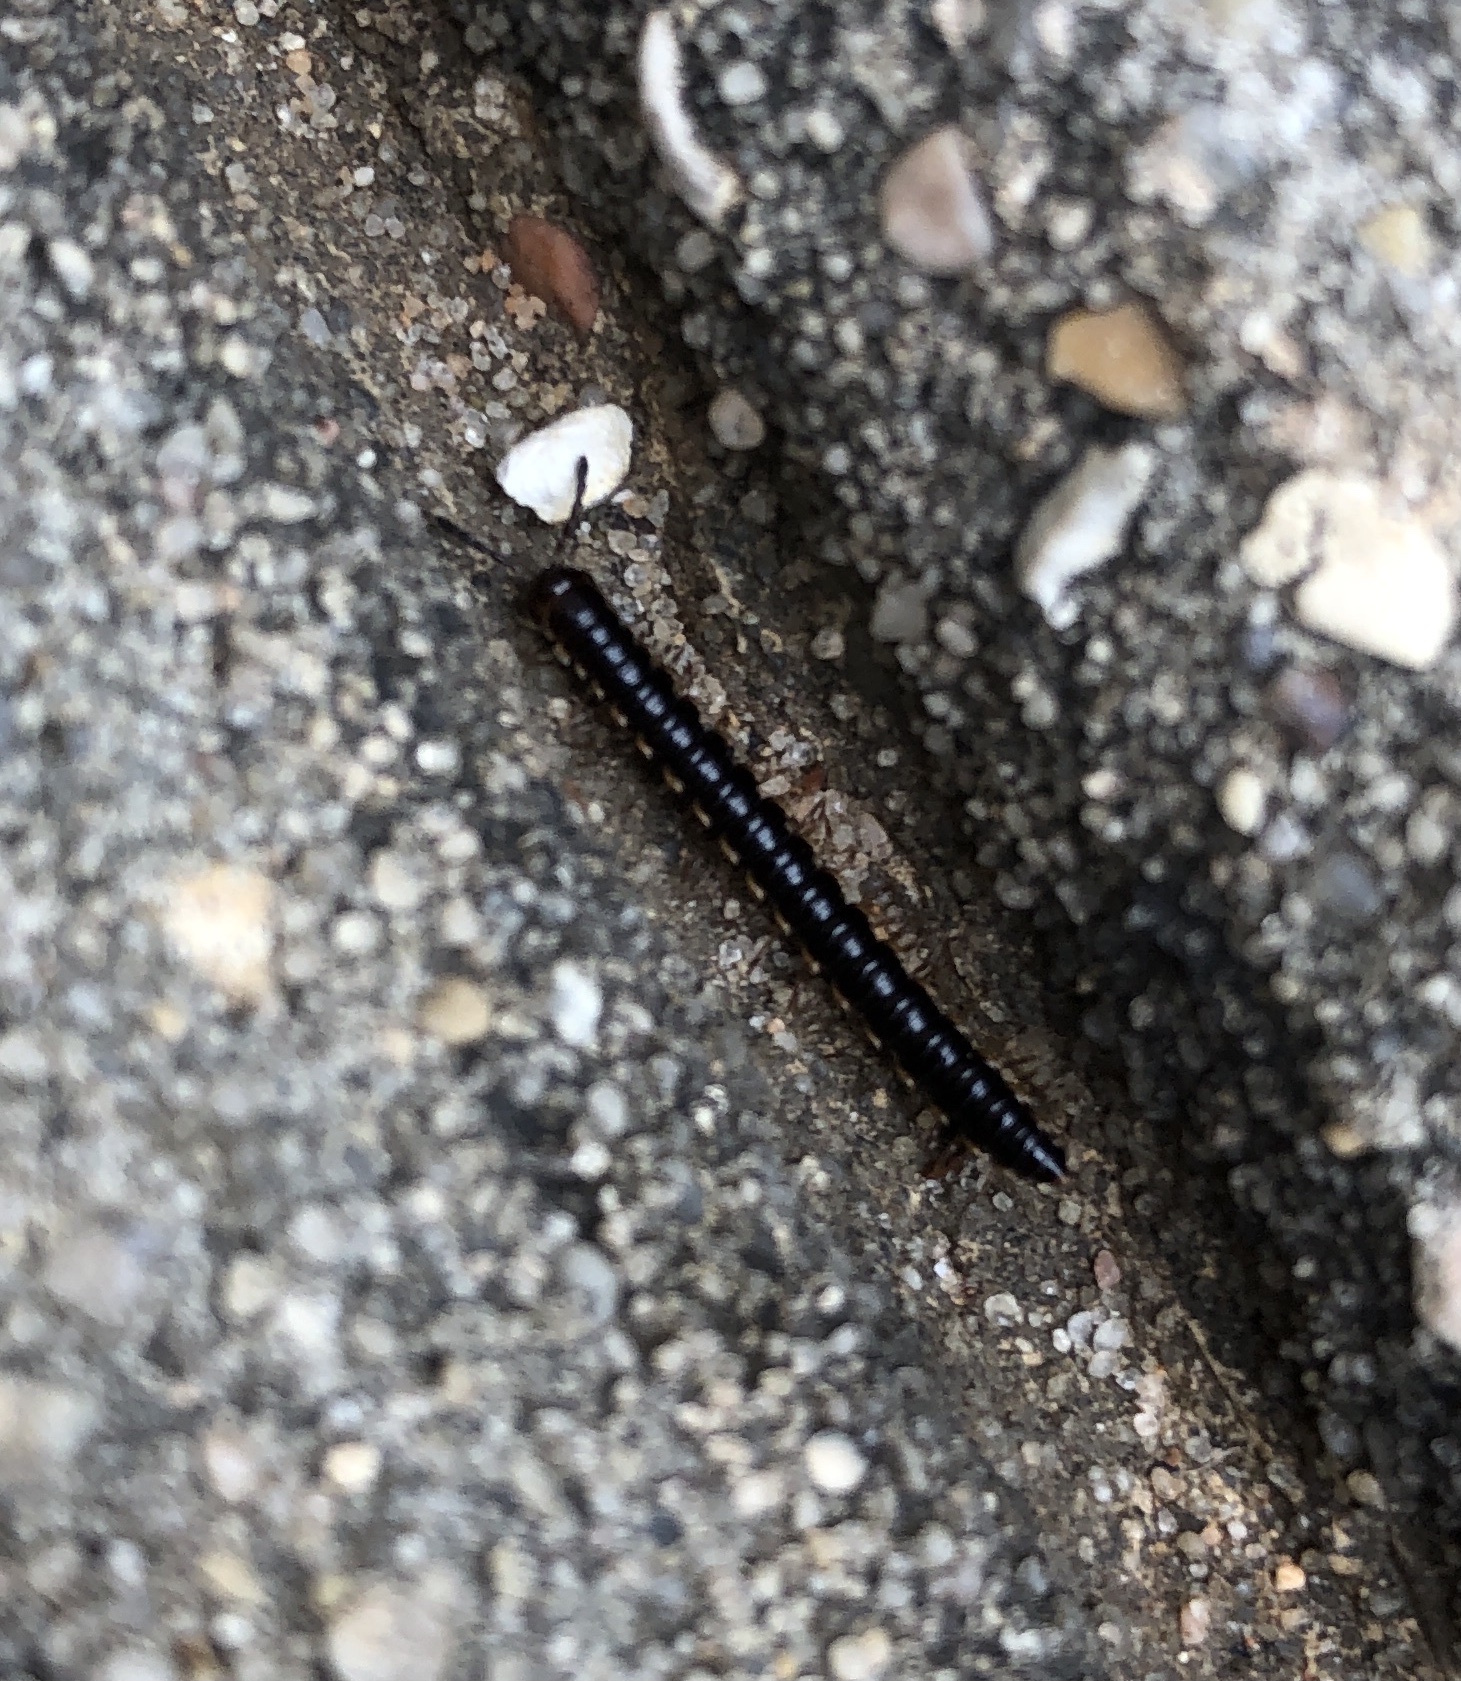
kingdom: Animalia
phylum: Arthropoda
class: Diplopoda
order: Polydesmida
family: Paradoxosomatidae
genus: Oxidus
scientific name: Oxidus gracilis
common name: Greenhouse millipede
